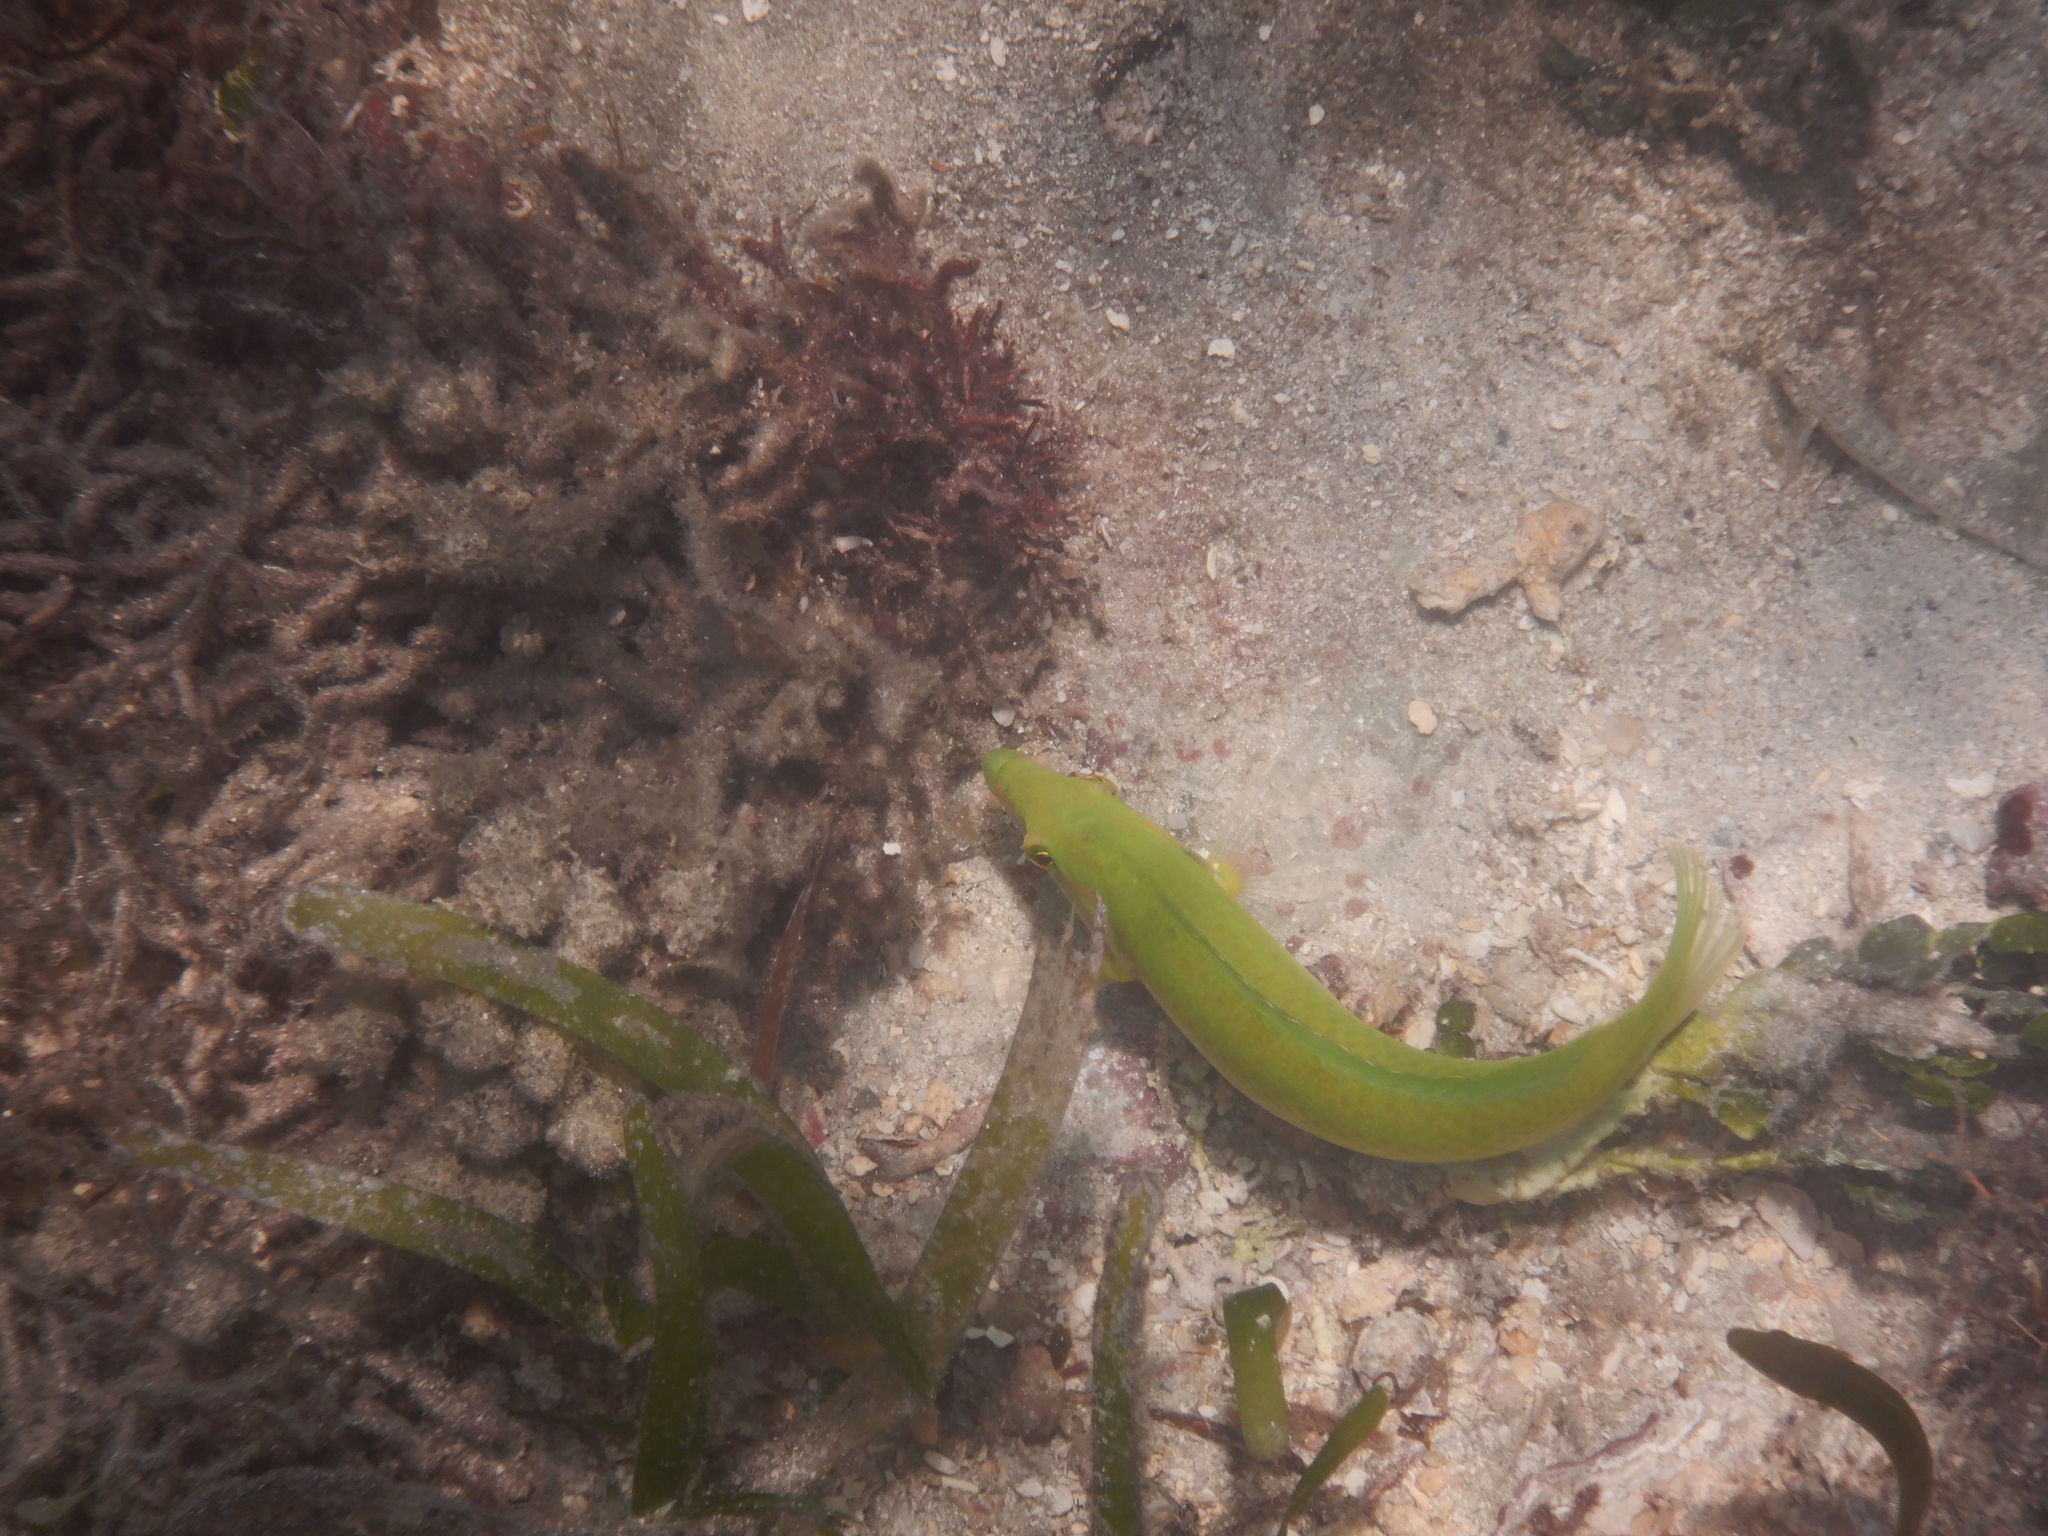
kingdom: Animalia
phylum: Chordata
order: Perciformes
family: Labridae
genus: Halichoeres
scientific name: Halichoeres chloropterus
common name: Pastel-green wrasse
